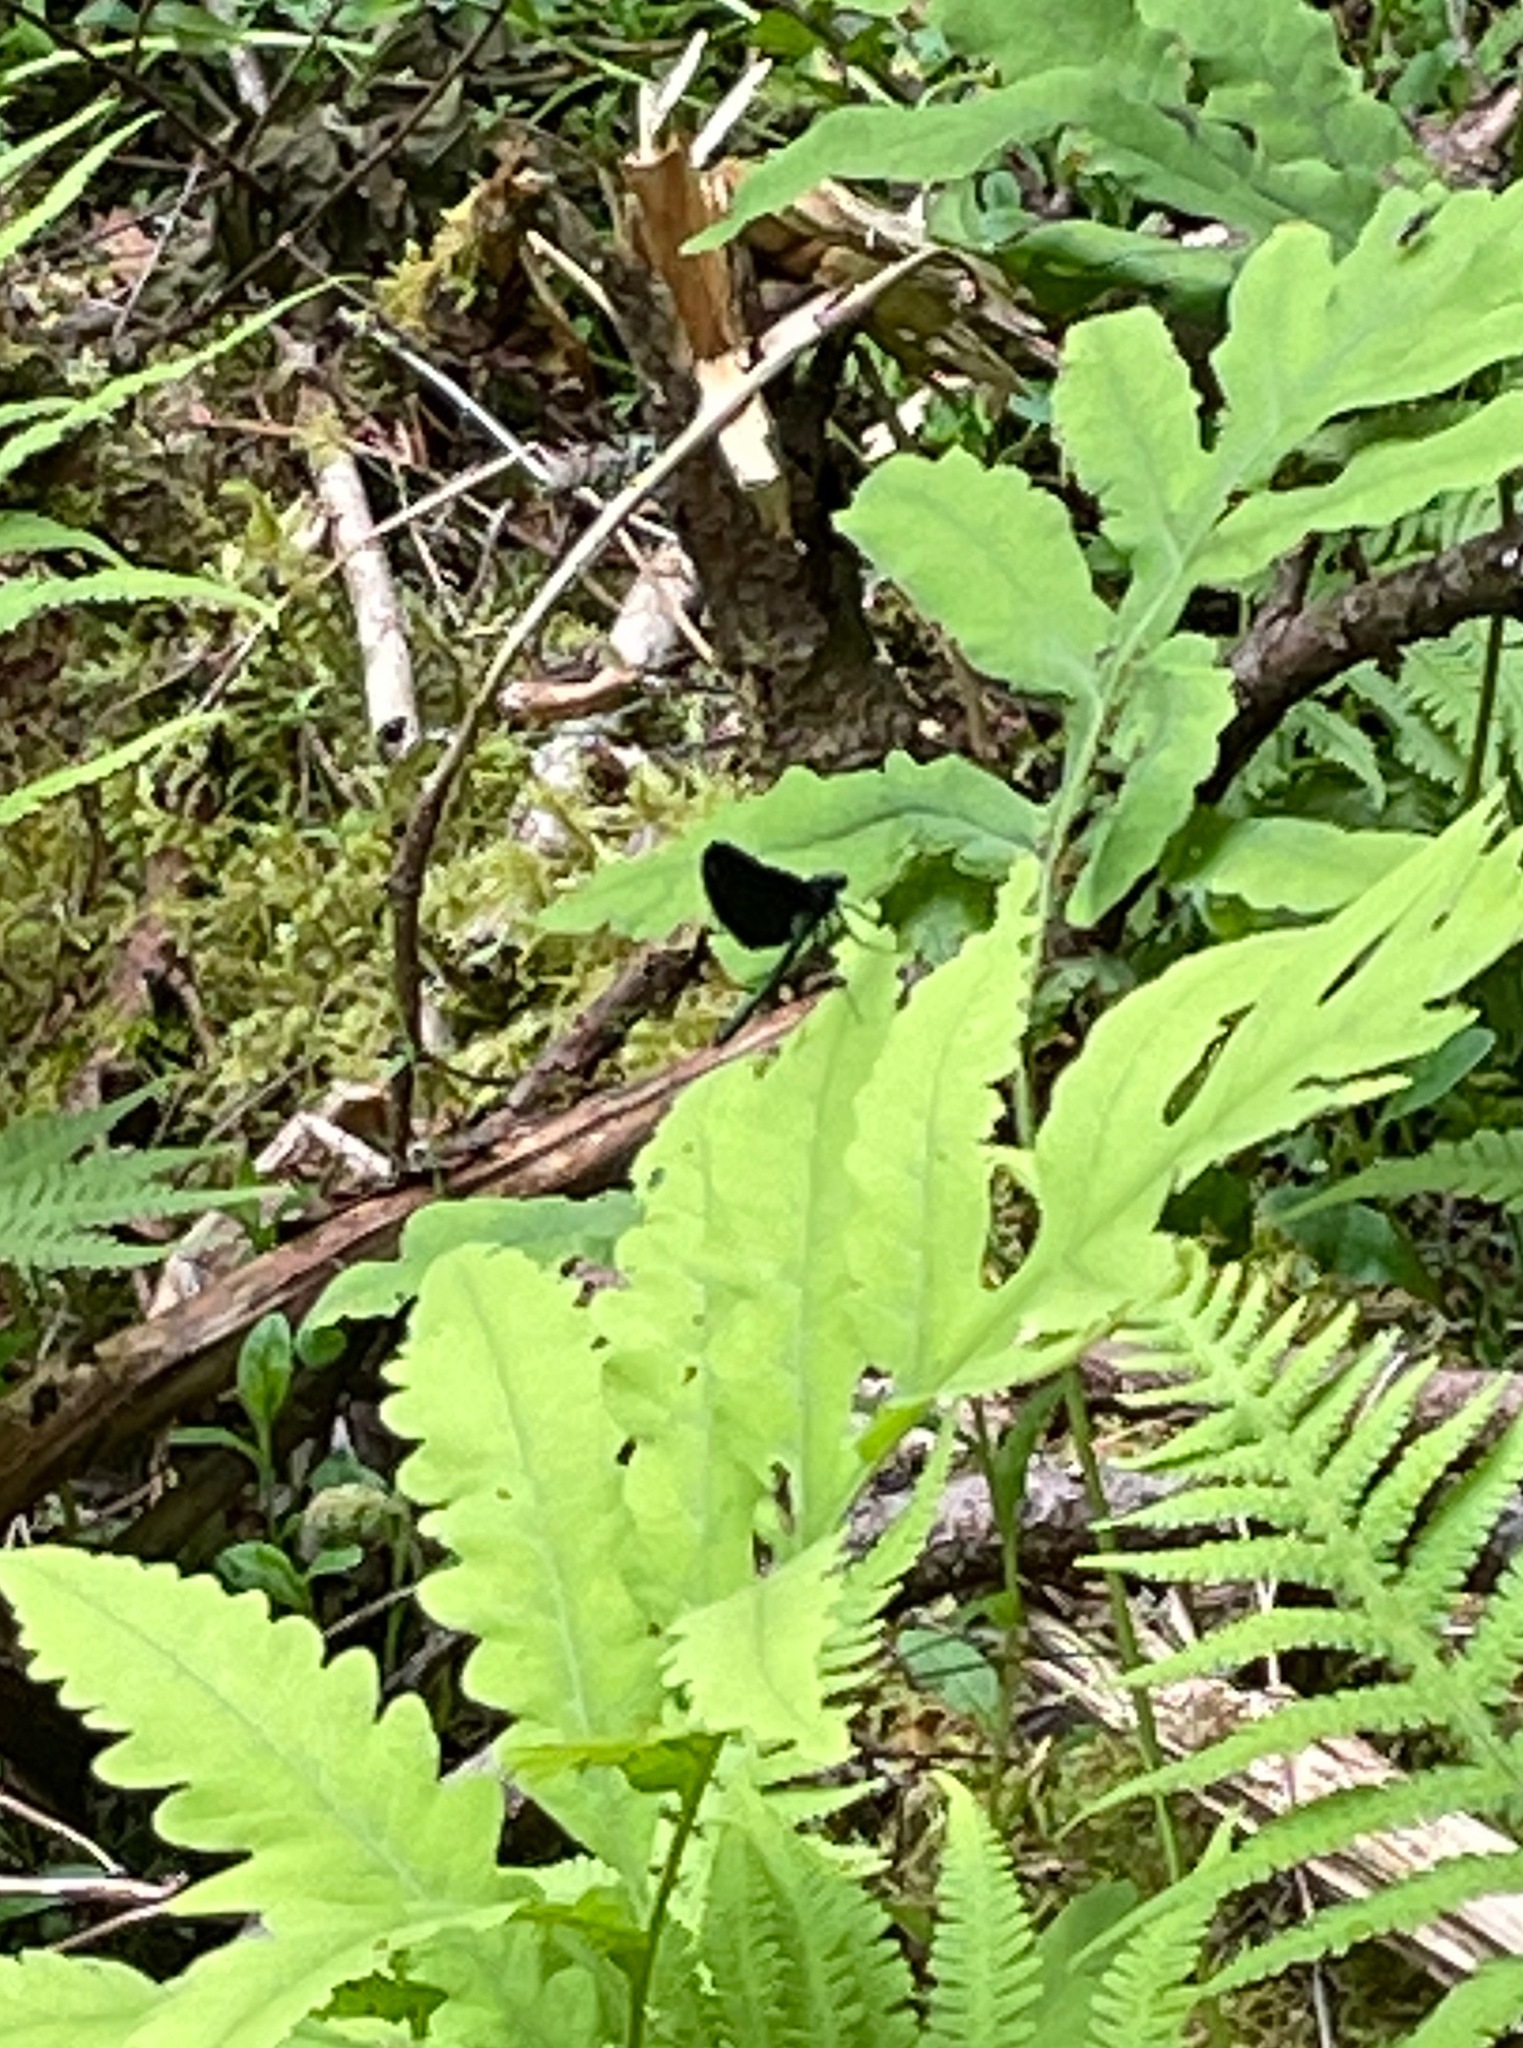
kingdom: Animalia
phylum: Arthropoda
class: Insecta
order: Odonata
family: Calopterygidae
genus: Calopteryx
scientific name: Calopteryx maculata
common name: Ebony jewelwing
